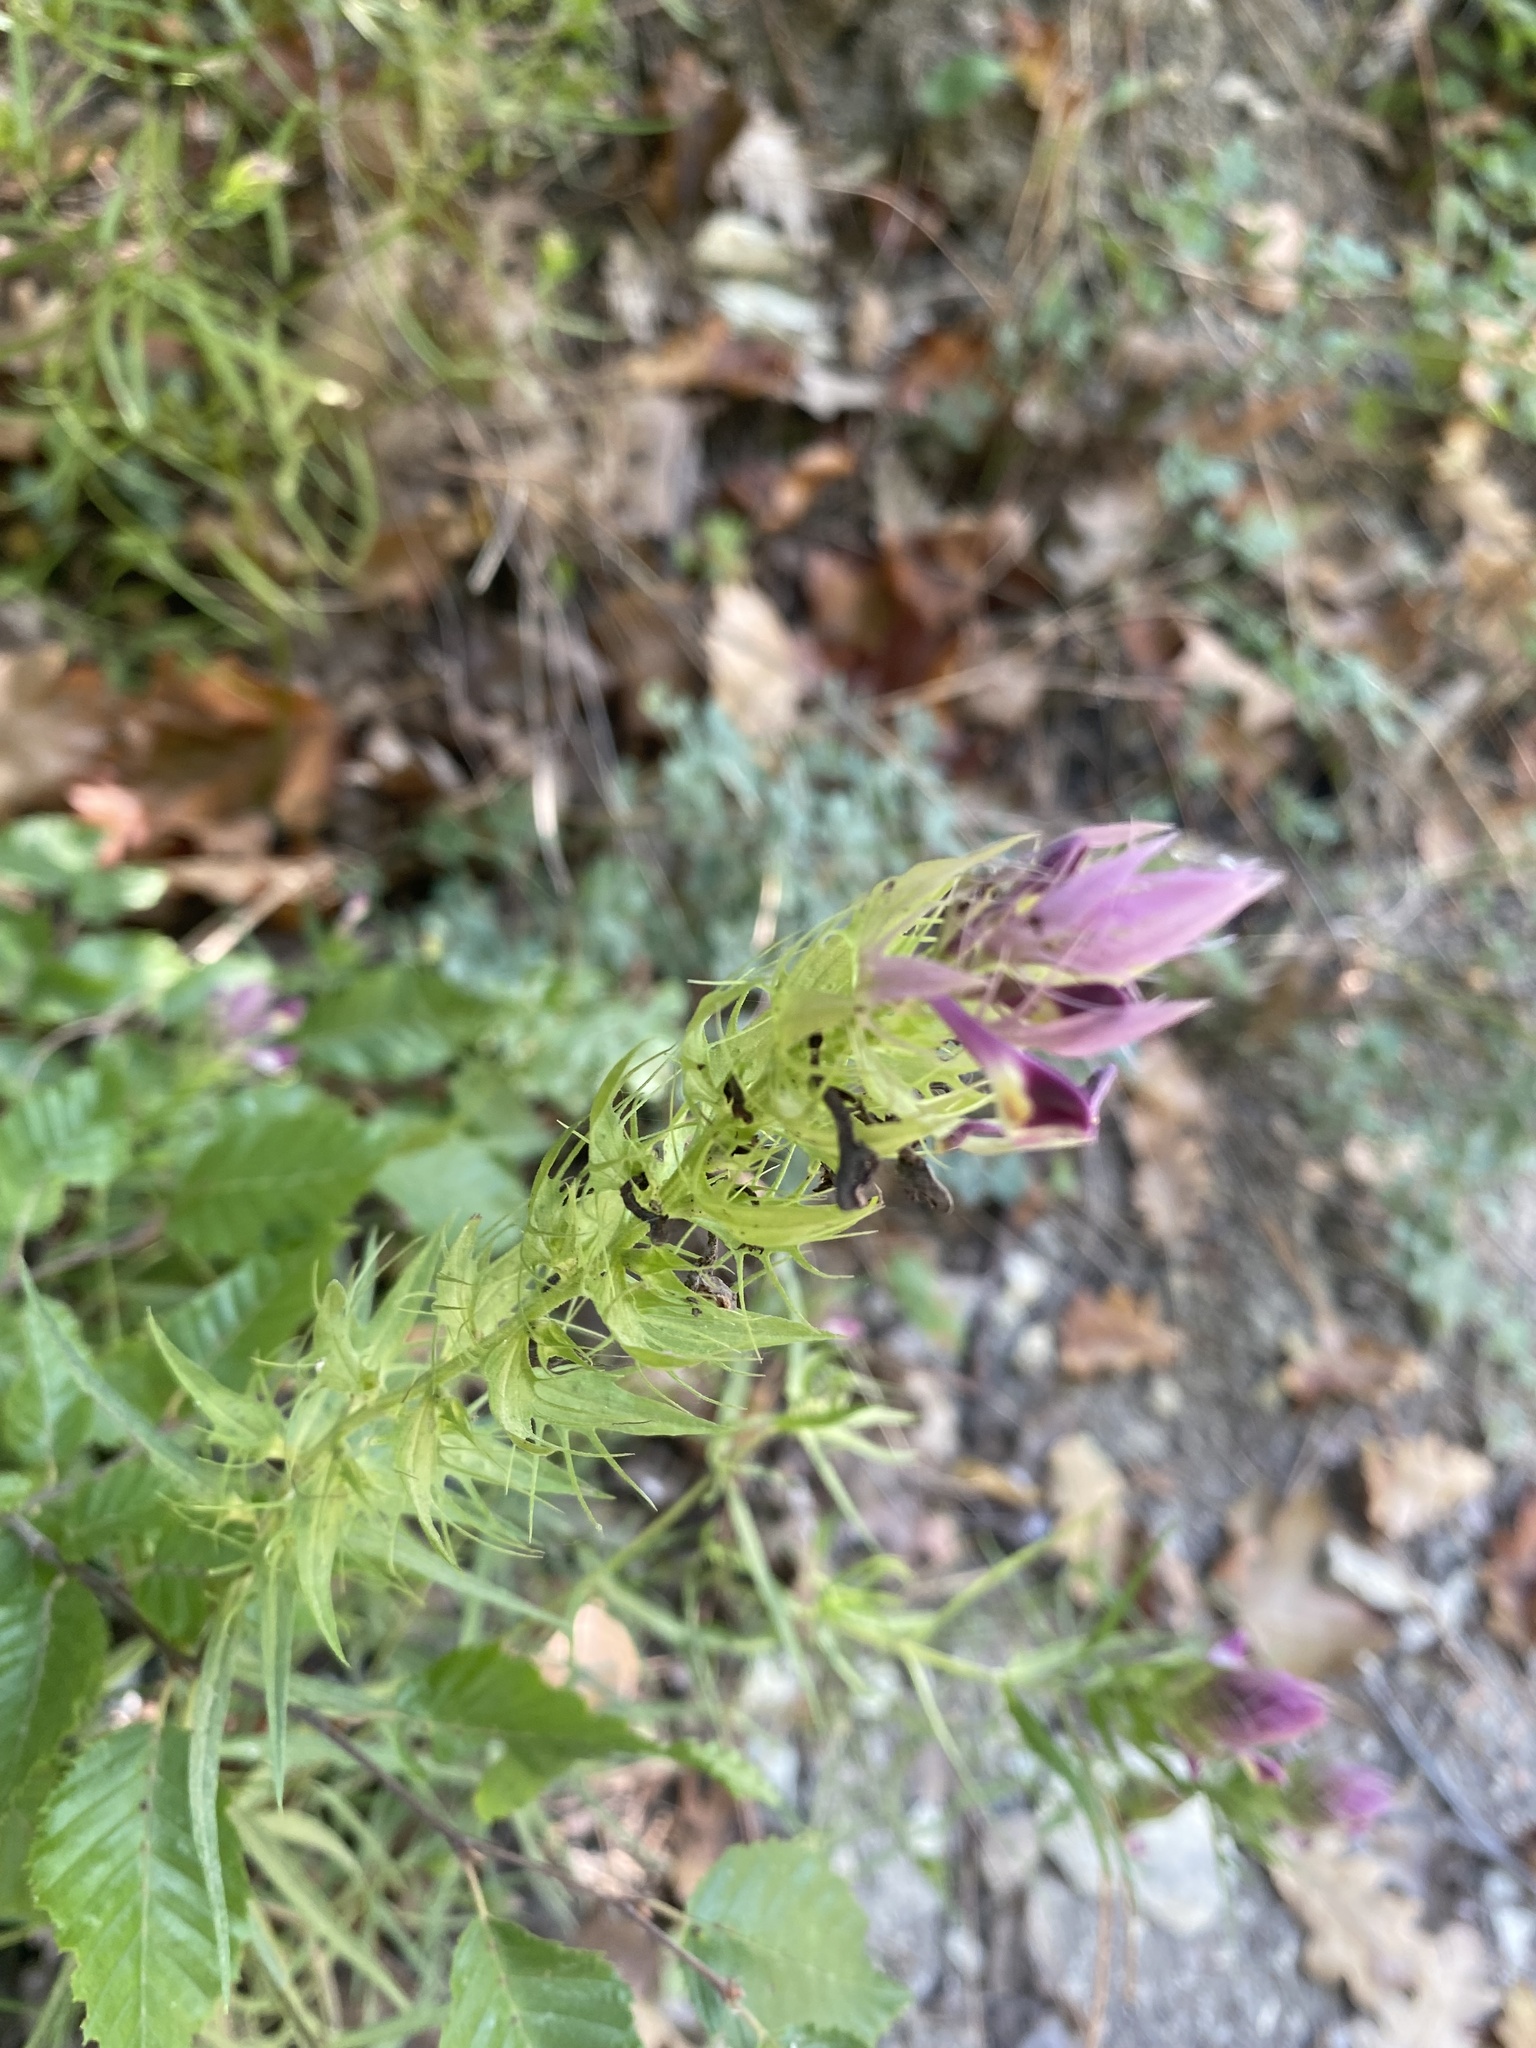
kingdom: Plantae
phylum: Tracheophyta
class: Magnoliopsida
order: Lamiales
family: Orobanchaceae
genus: Melampyrum
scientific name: Melampyrum arvense
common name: Field cow-wheat
